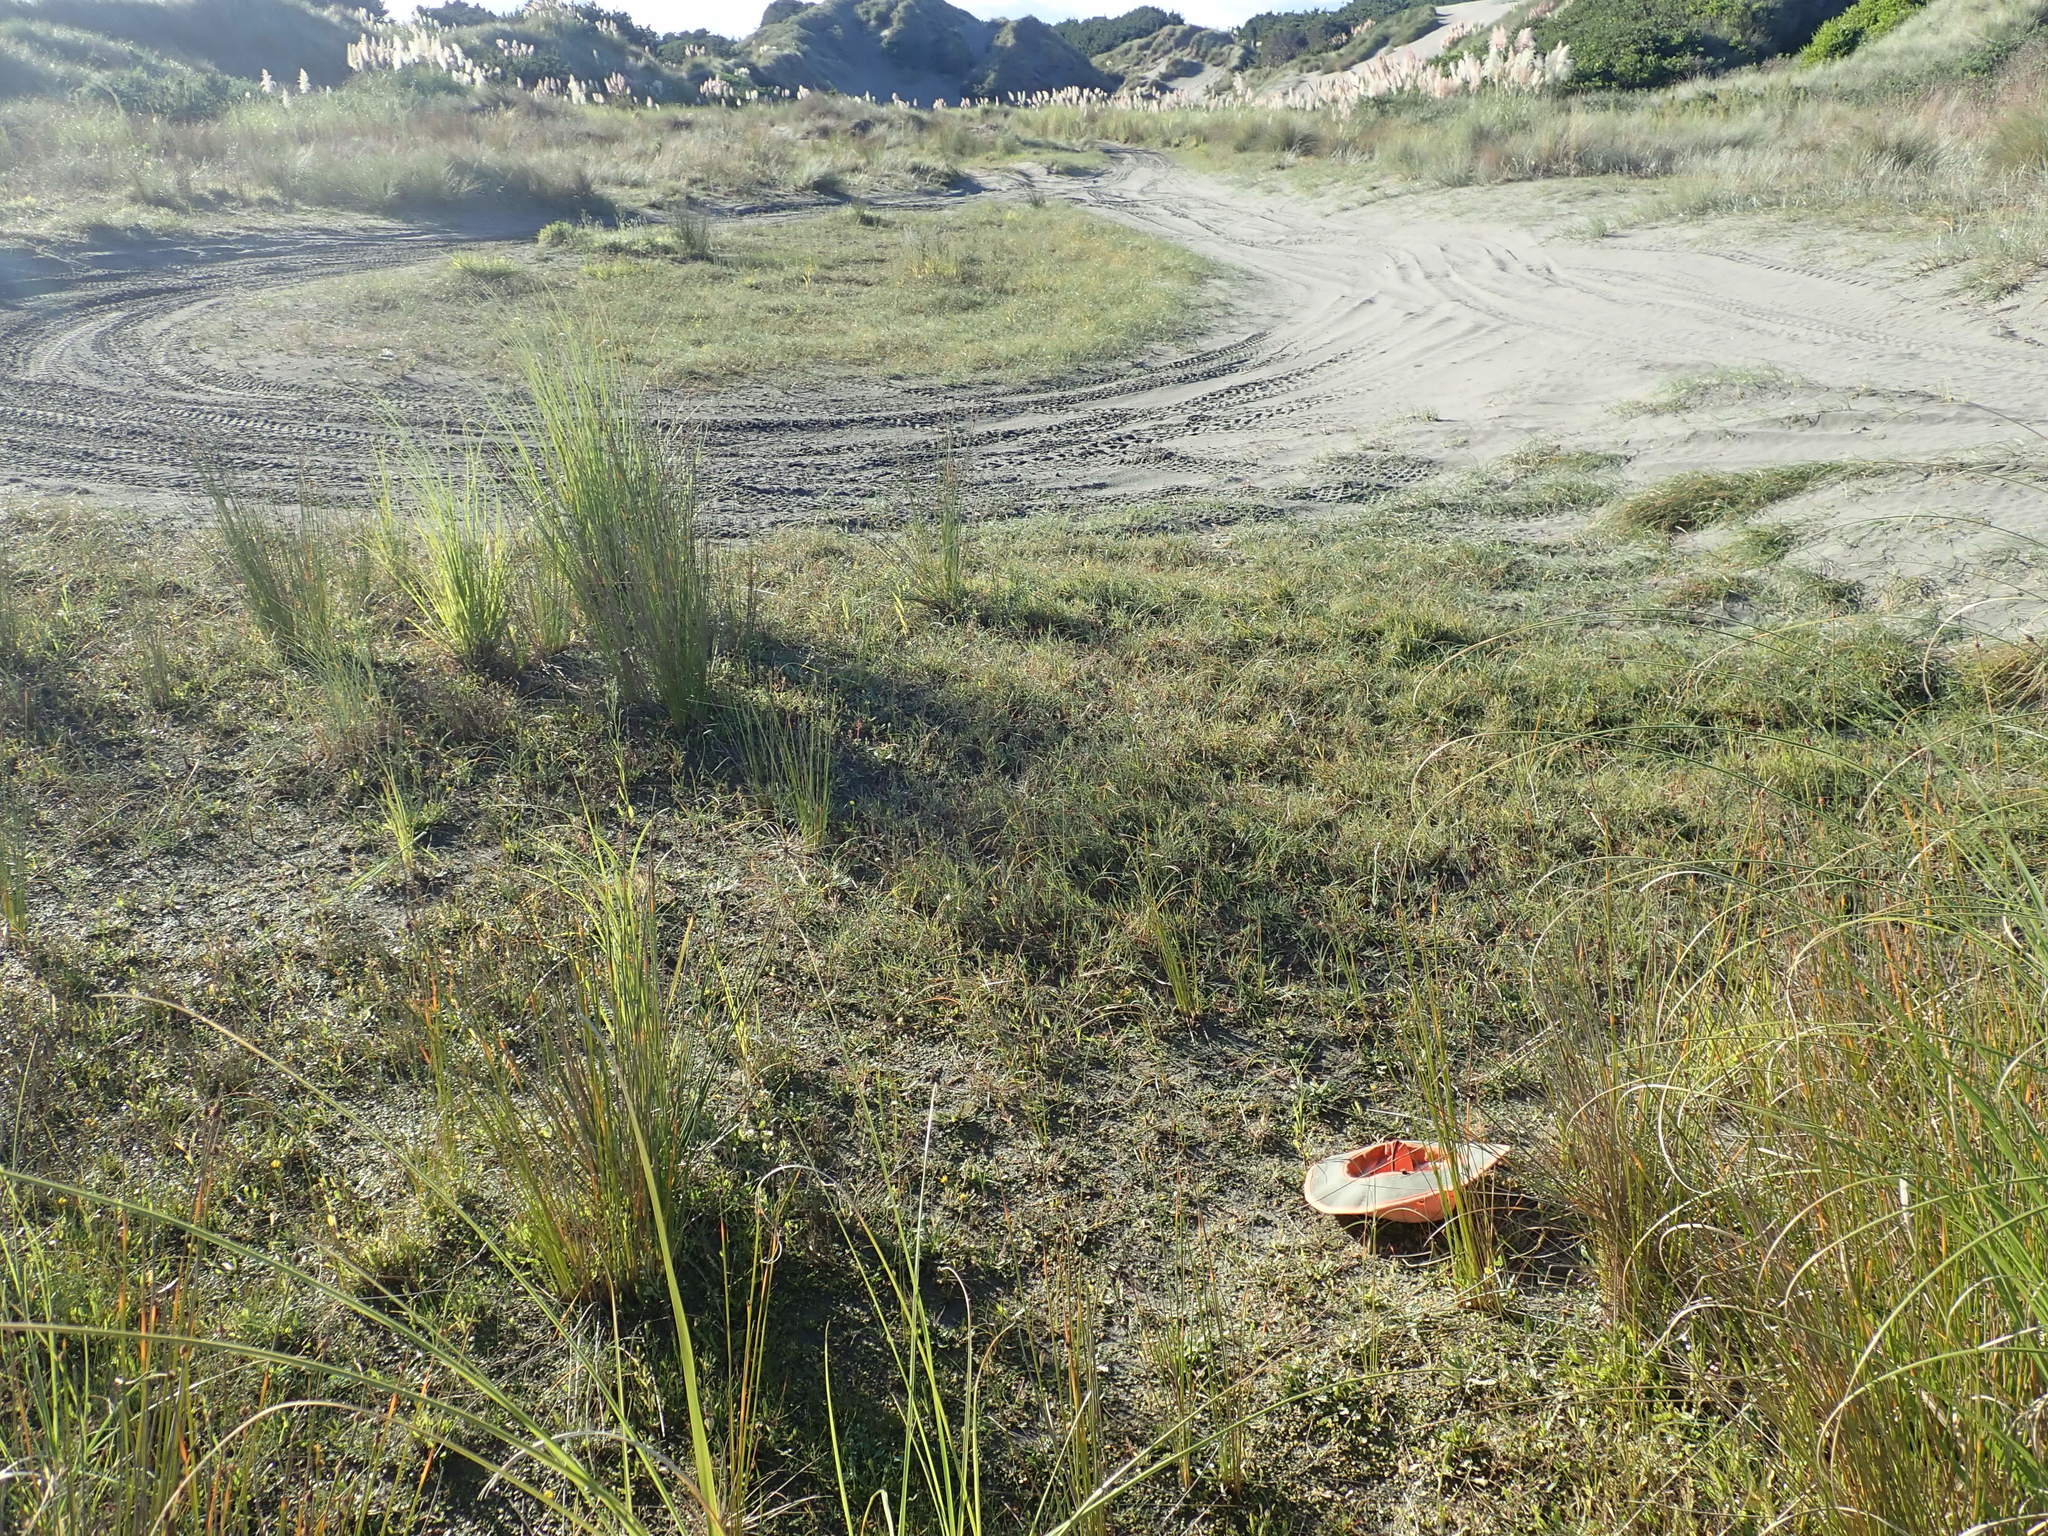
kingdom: Plantae
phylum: Tracheophyta
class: Magnoliopsida
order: Asterales
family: Campanulaceae
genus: Lobelia
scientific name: Lobelia anceps
